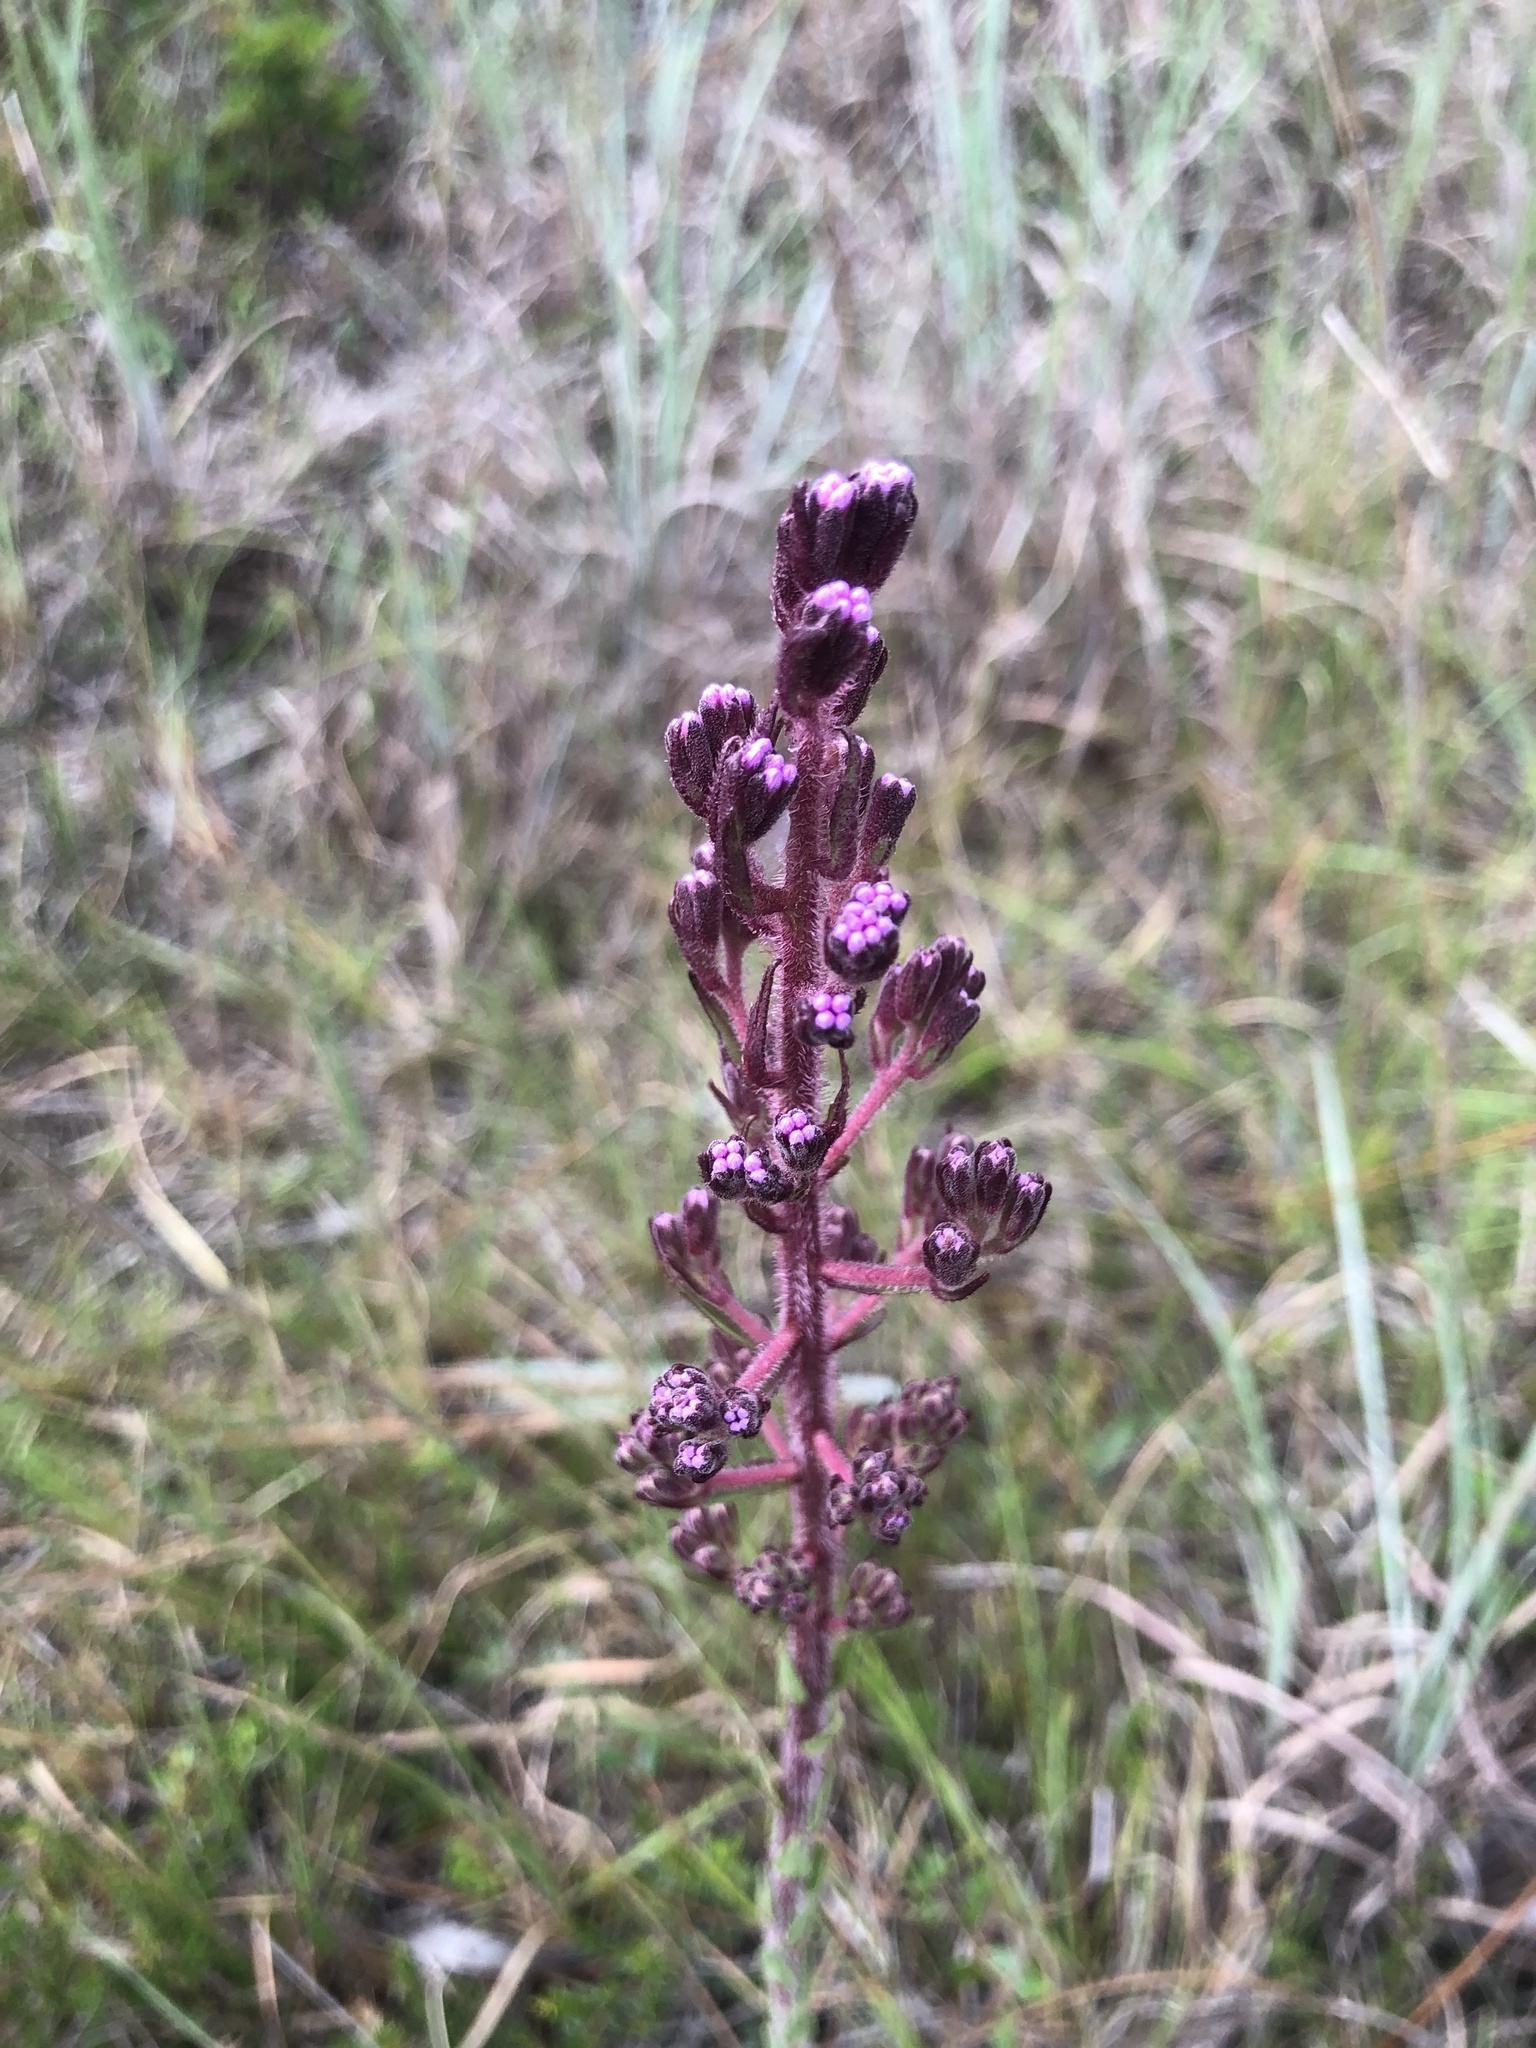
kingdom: Plantae
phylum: Tracheophyta
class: Magnoliopsida
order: Asterales
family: Asteraceae
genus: Carphephorus
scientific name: Carphephorus paniculatus
